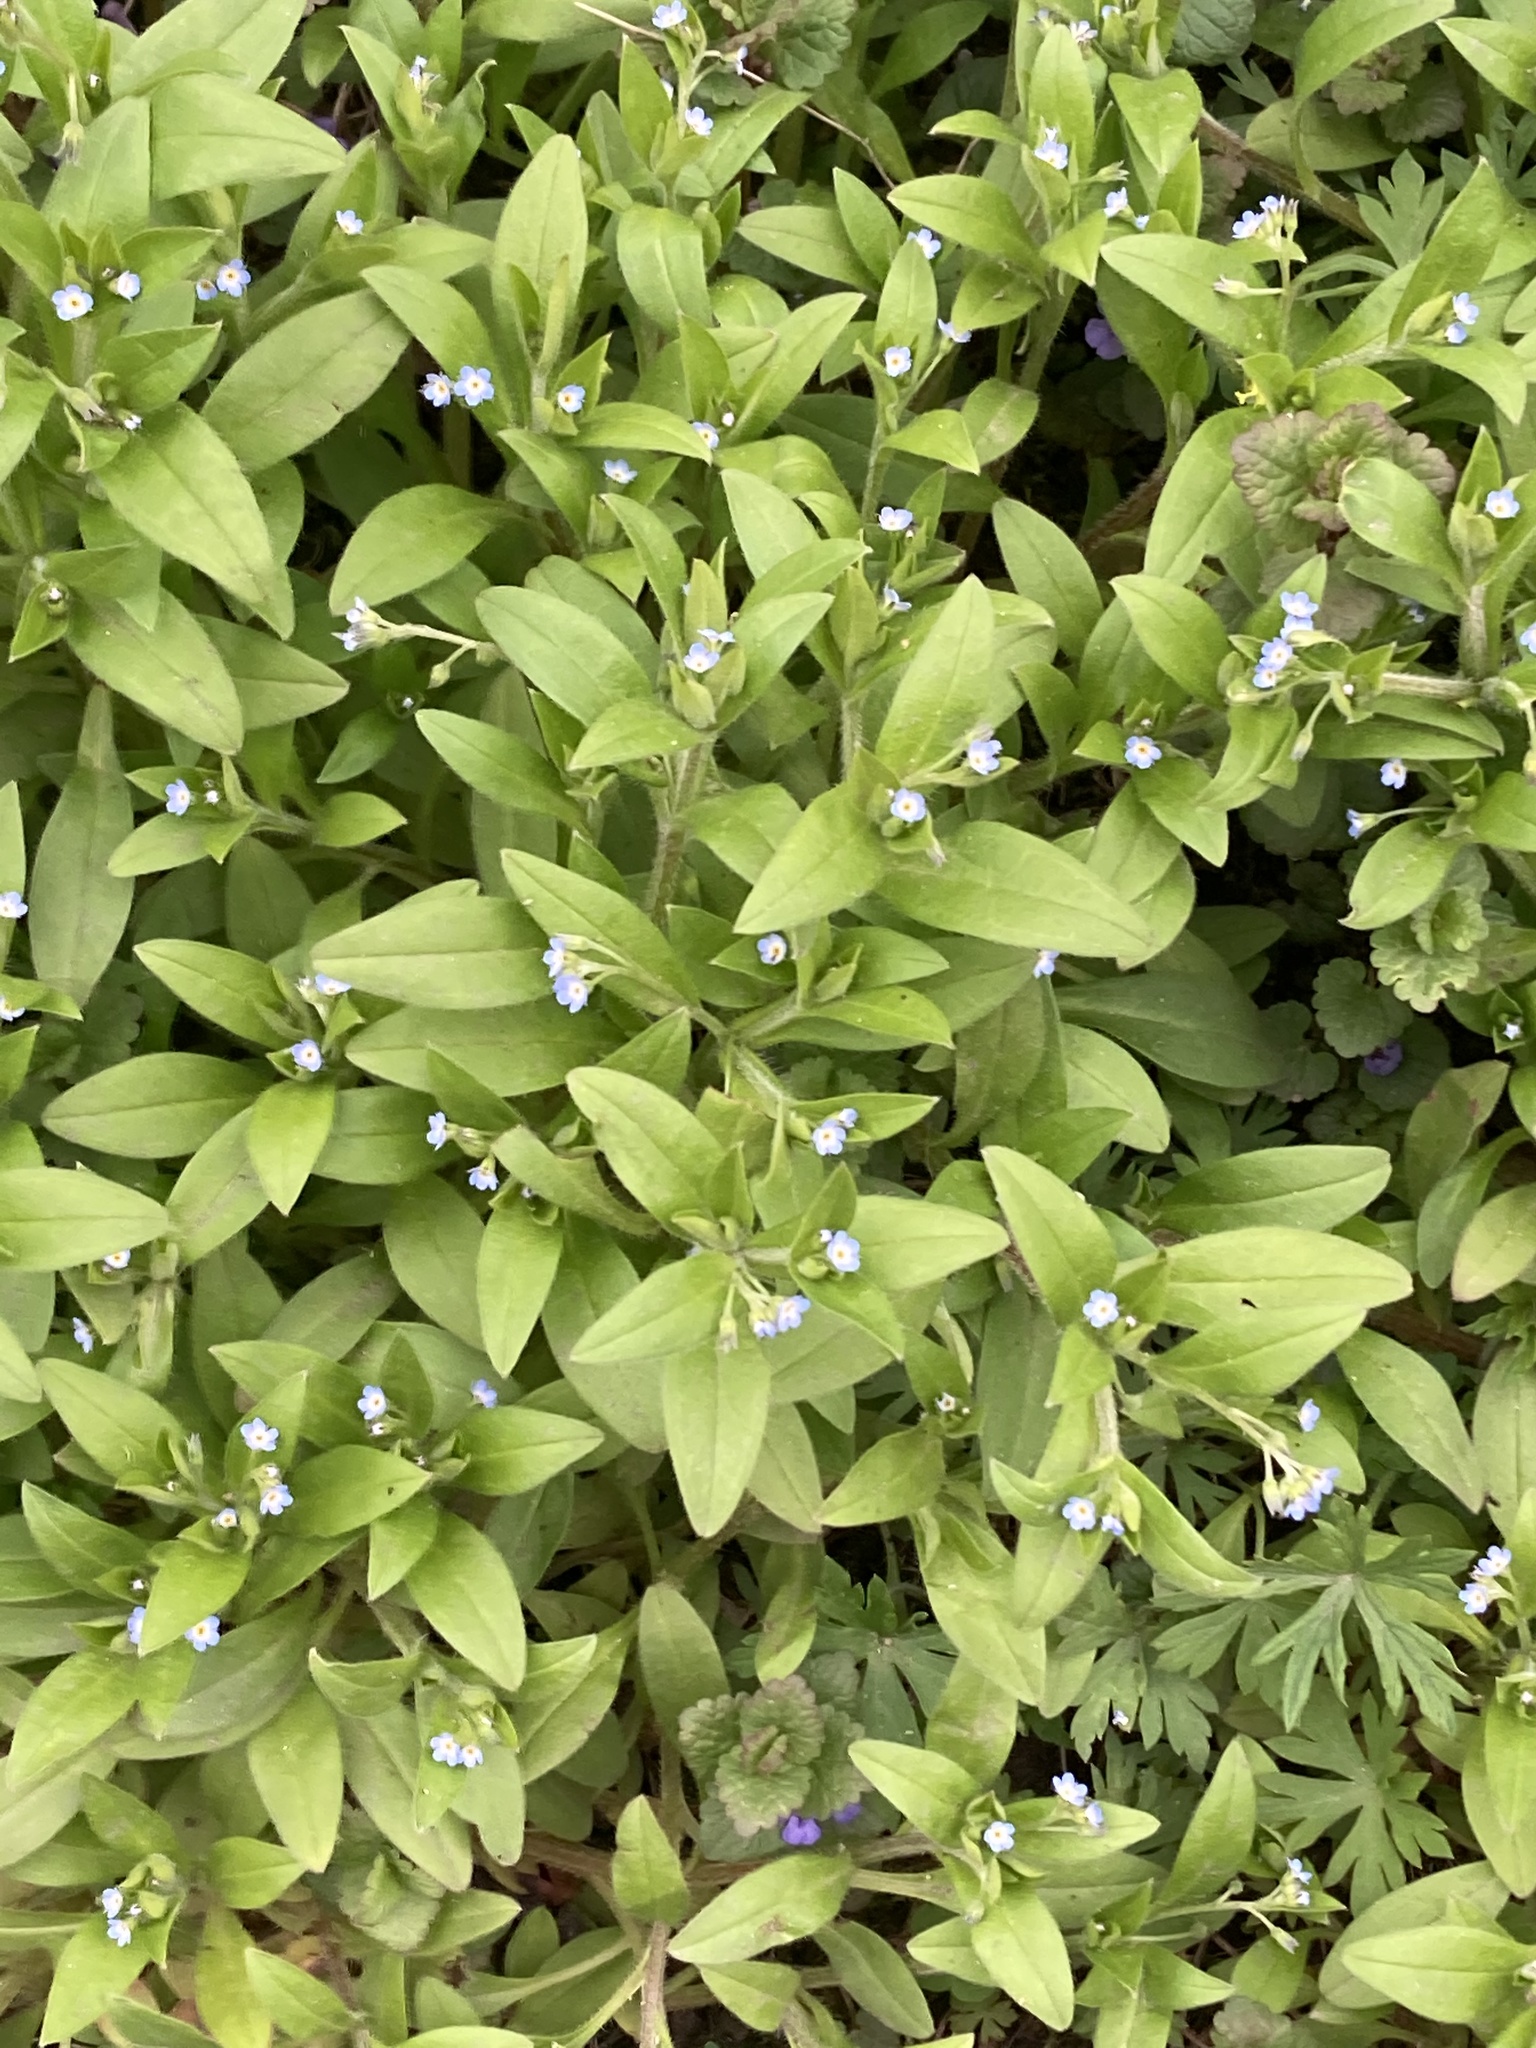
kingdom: Plantae
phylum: Tracheophyta
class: Magnoliopsida
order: Boraginales
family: Boraginaceae
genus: Myosotis
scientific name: Myosotis sparsiflora
